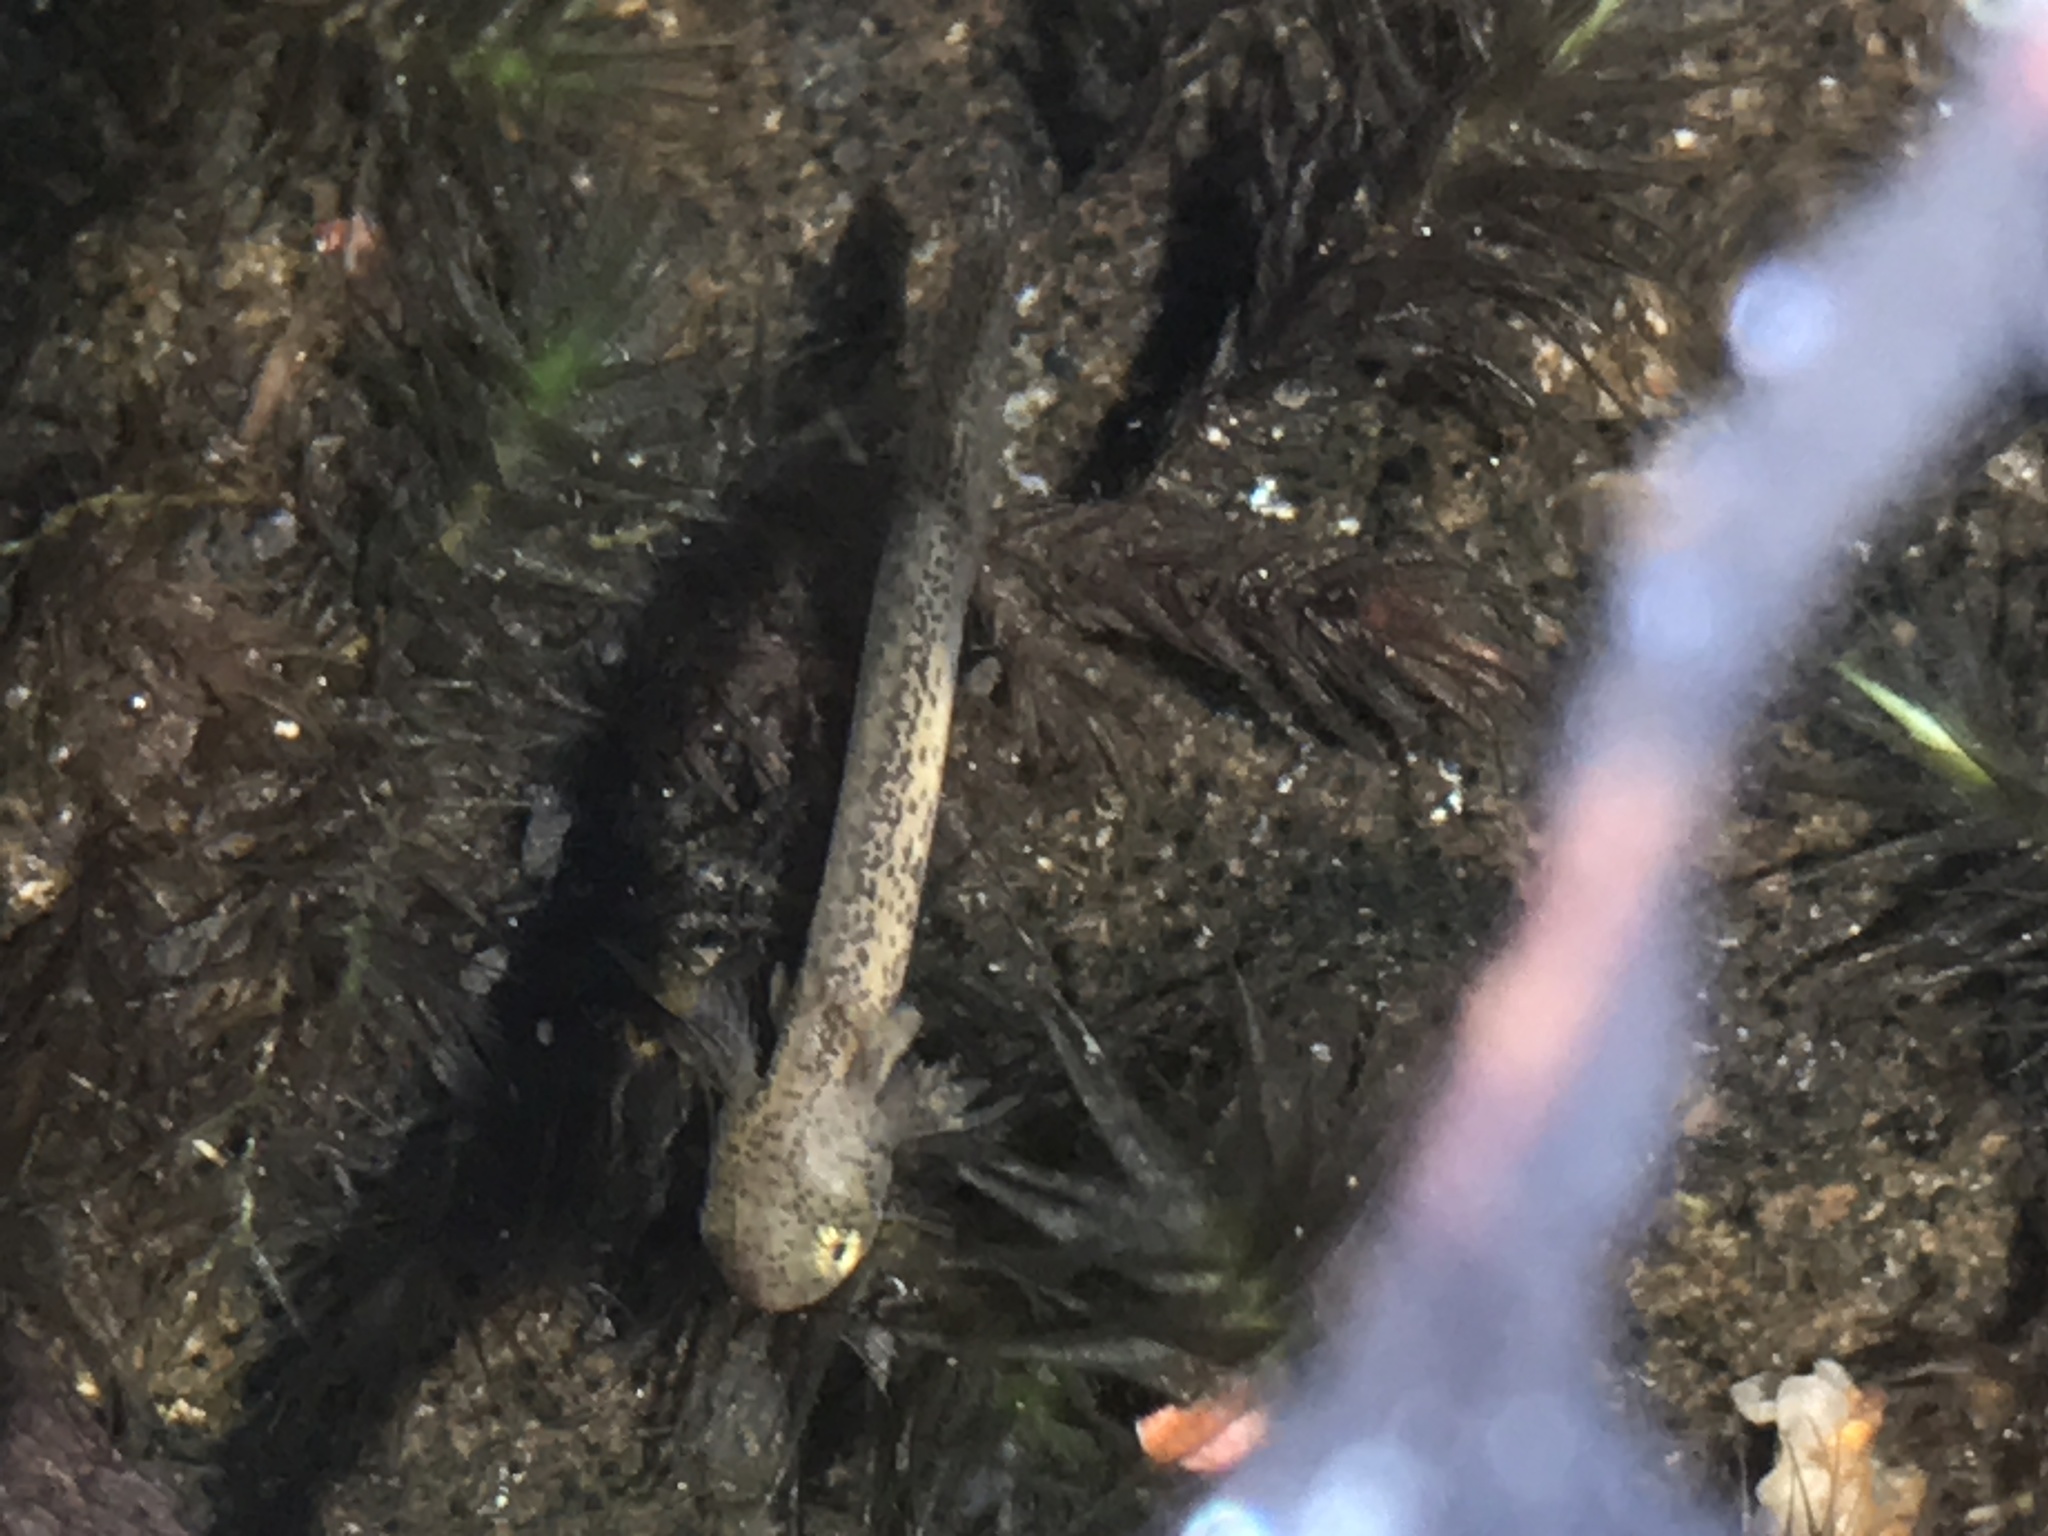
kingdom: Animalia
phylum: Chordata
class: Amphibia
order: Caudata
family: Salamandridae
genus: Notophthalmus
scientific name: Notophthalmus viridescens
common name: Eastern newt
